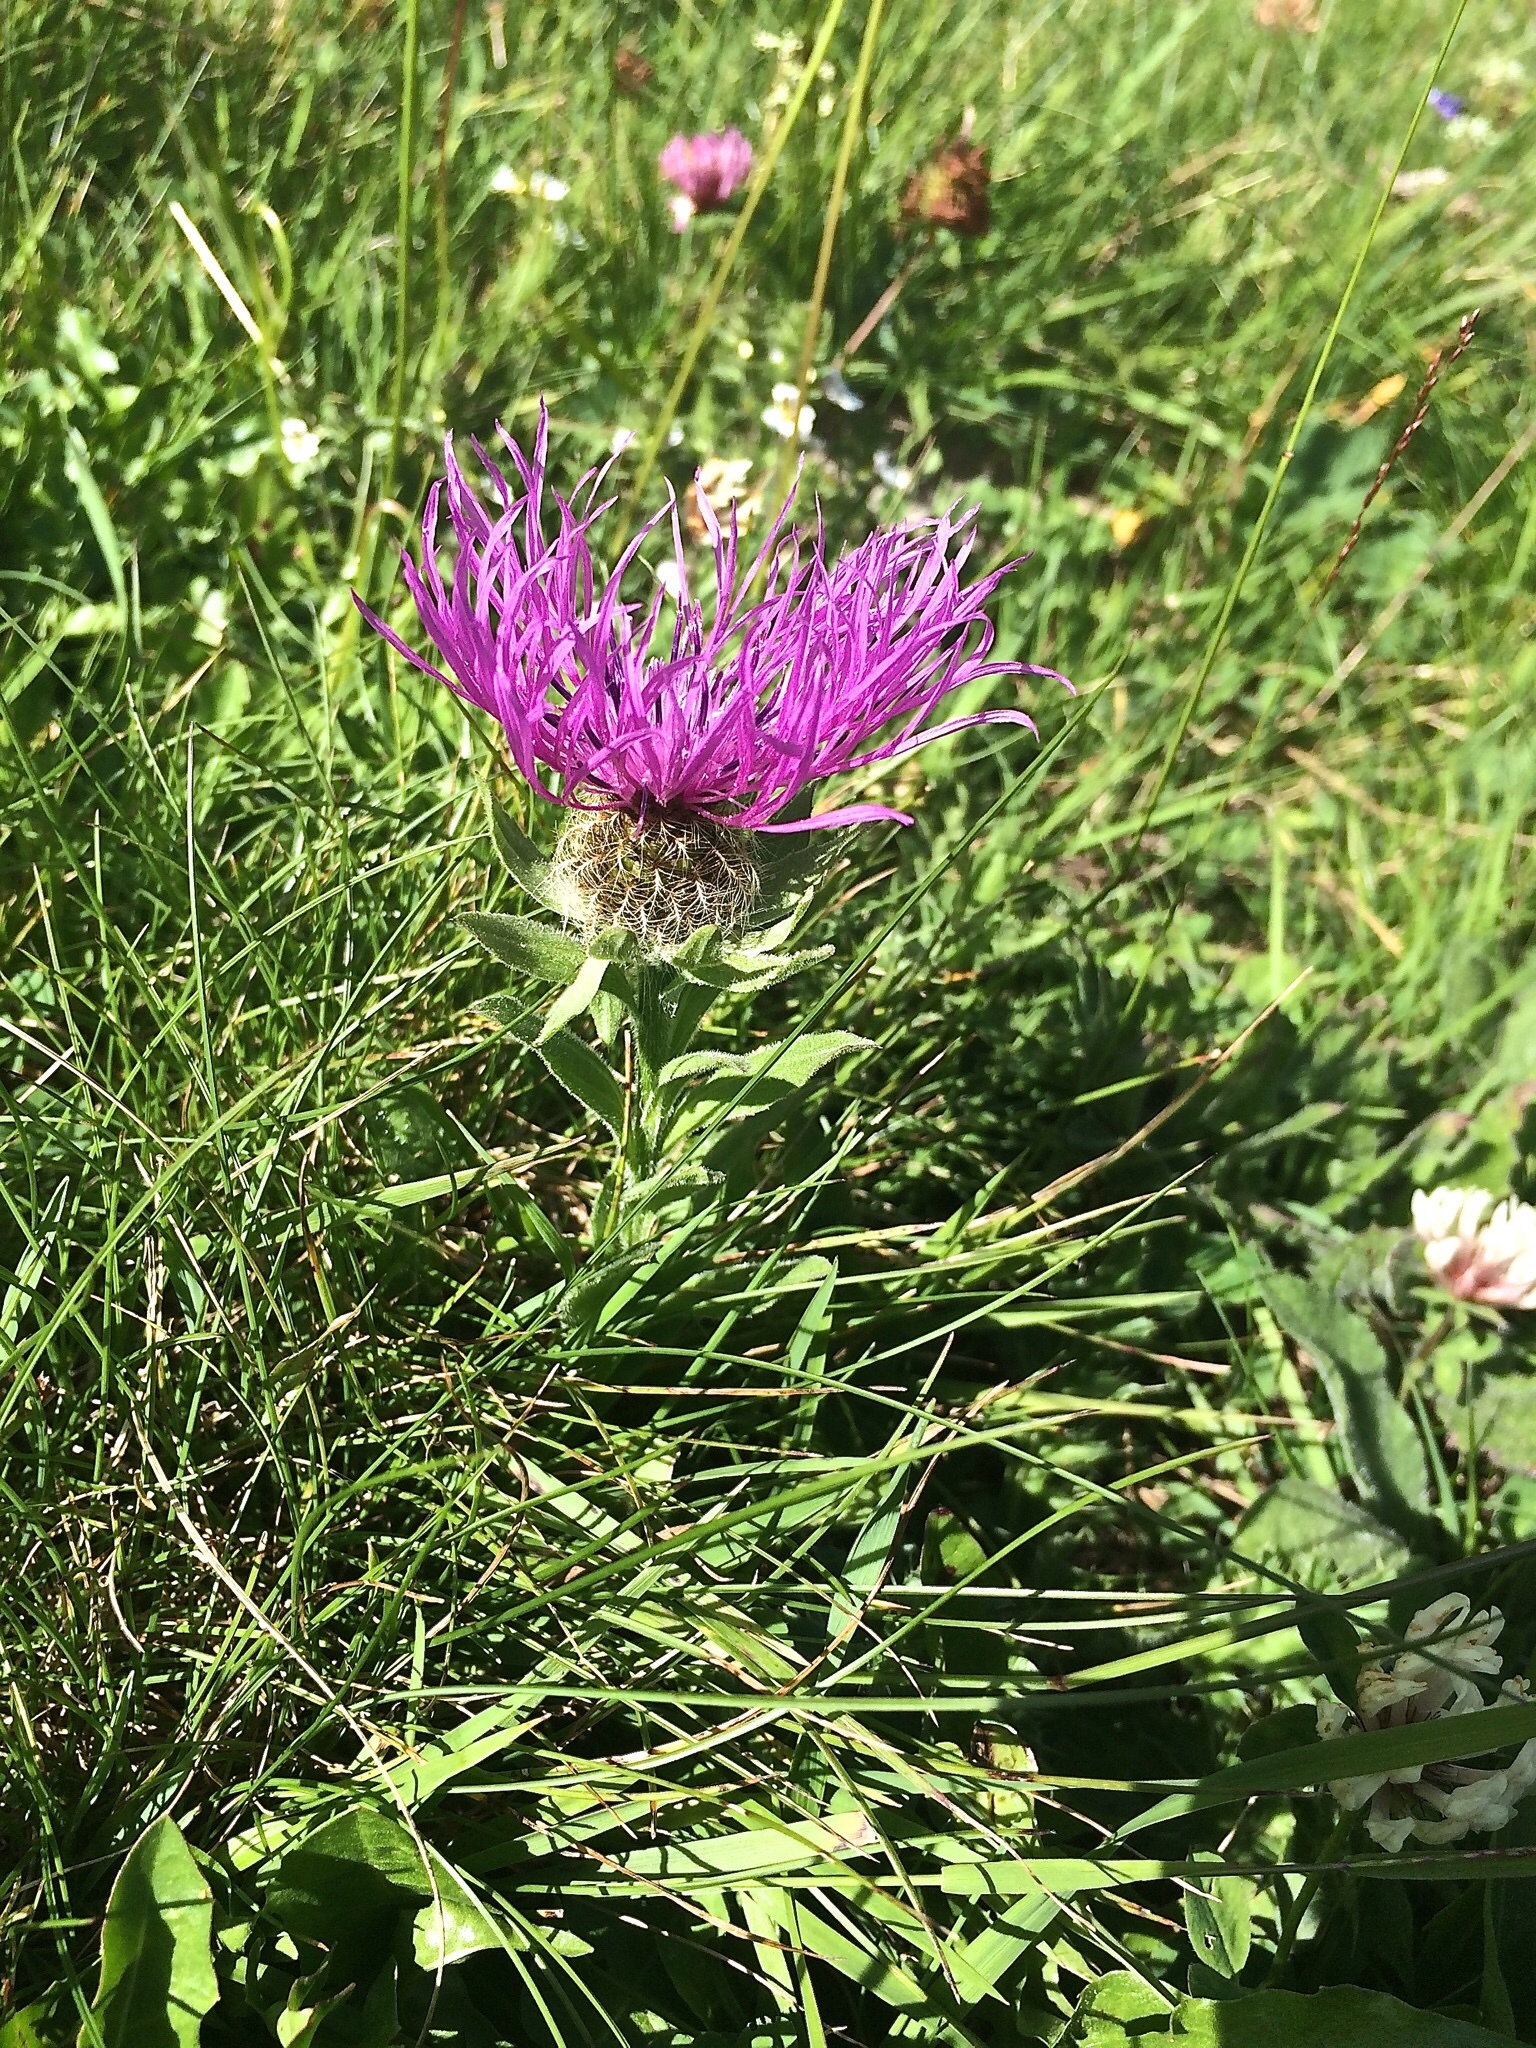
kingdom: Plantae
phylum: Tracheophyta
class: Magnoliopsida
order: Asterales
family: Asteraceae
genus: Centaurea
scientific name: Centaurea nervosa
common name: Singleflower knapweed
